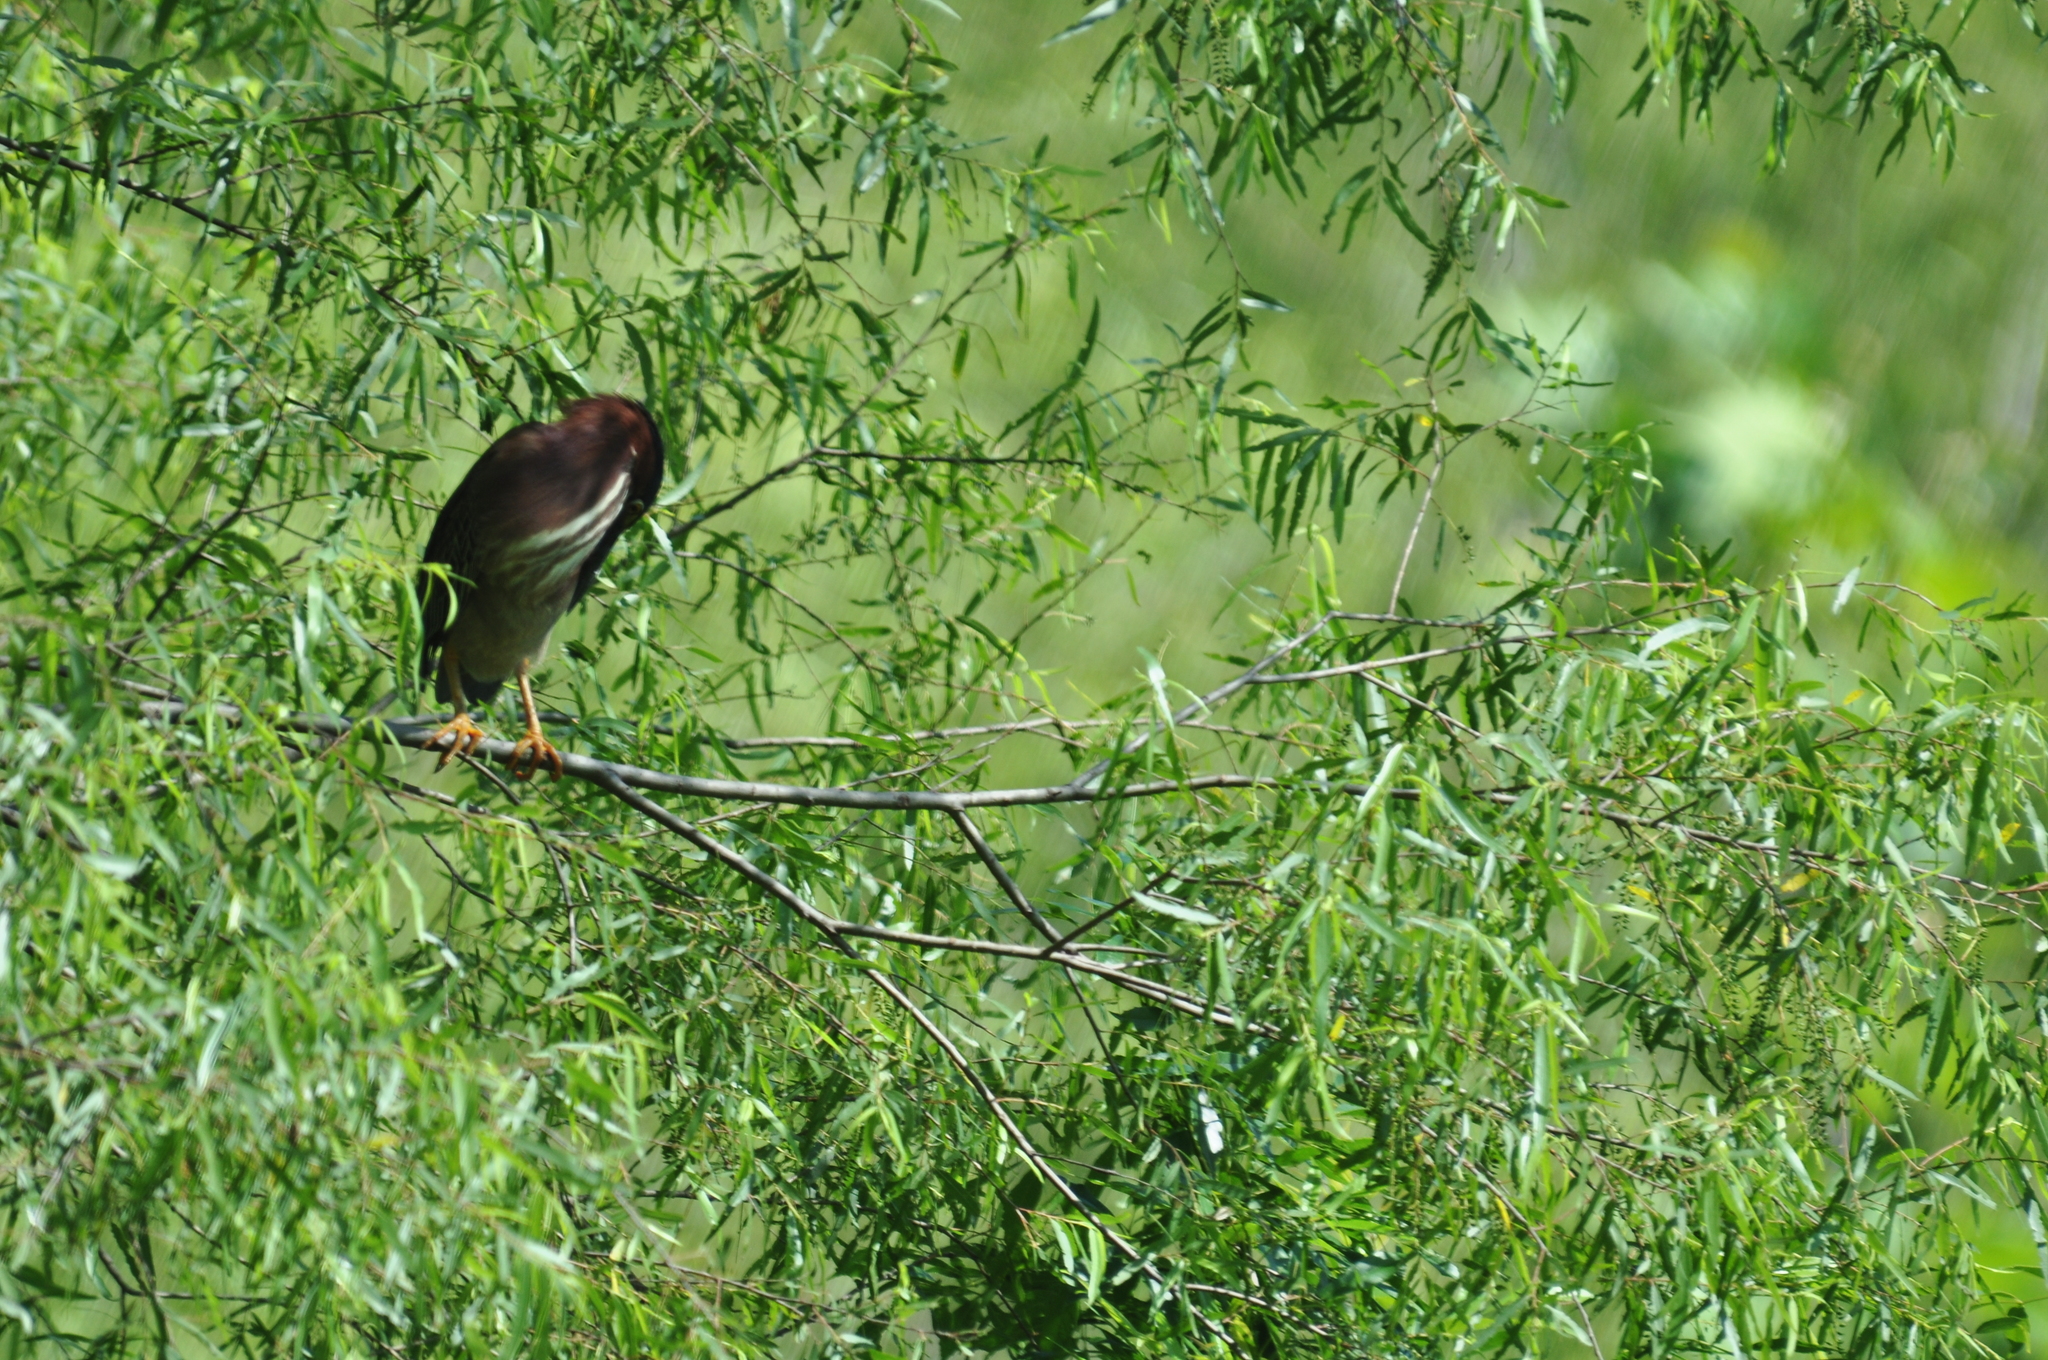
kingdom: Animalia
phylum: Chordata
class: Aves
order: Pelecaniformes
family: Ardeidae
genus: Butorides
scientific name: Butorides virescens
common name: Green heron
